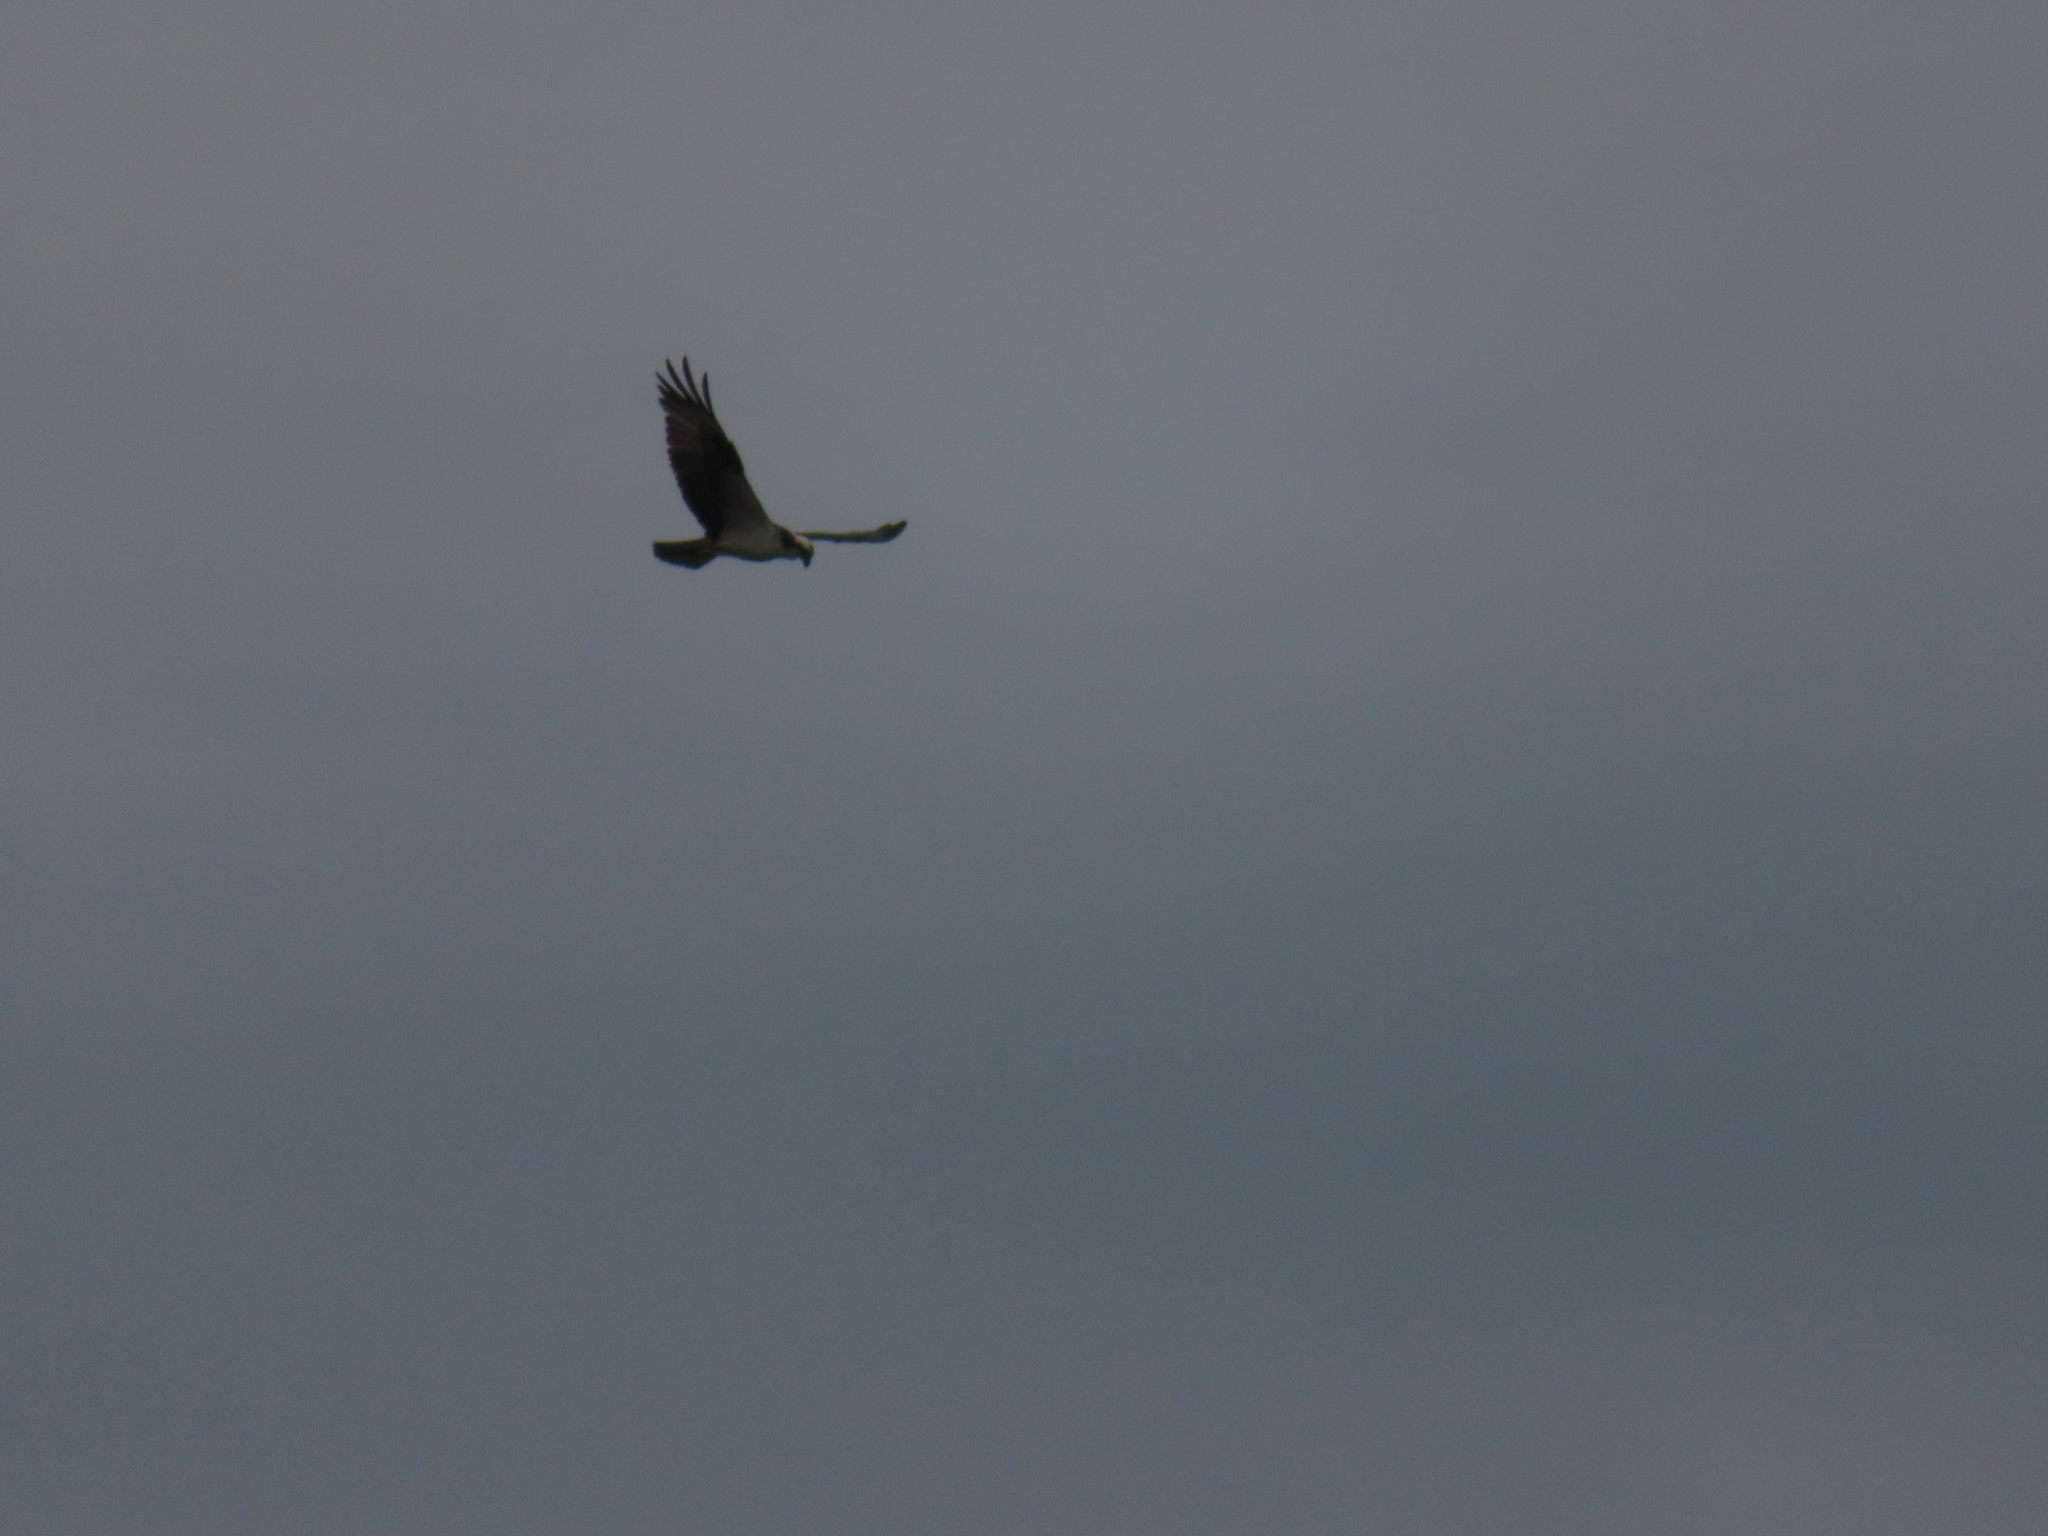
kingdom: Animalia
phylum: Chordata
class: Aves
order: Accipitriformes
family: Pandionidae
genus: Pandion
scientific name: Pandion haliaetus
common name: Osprey
